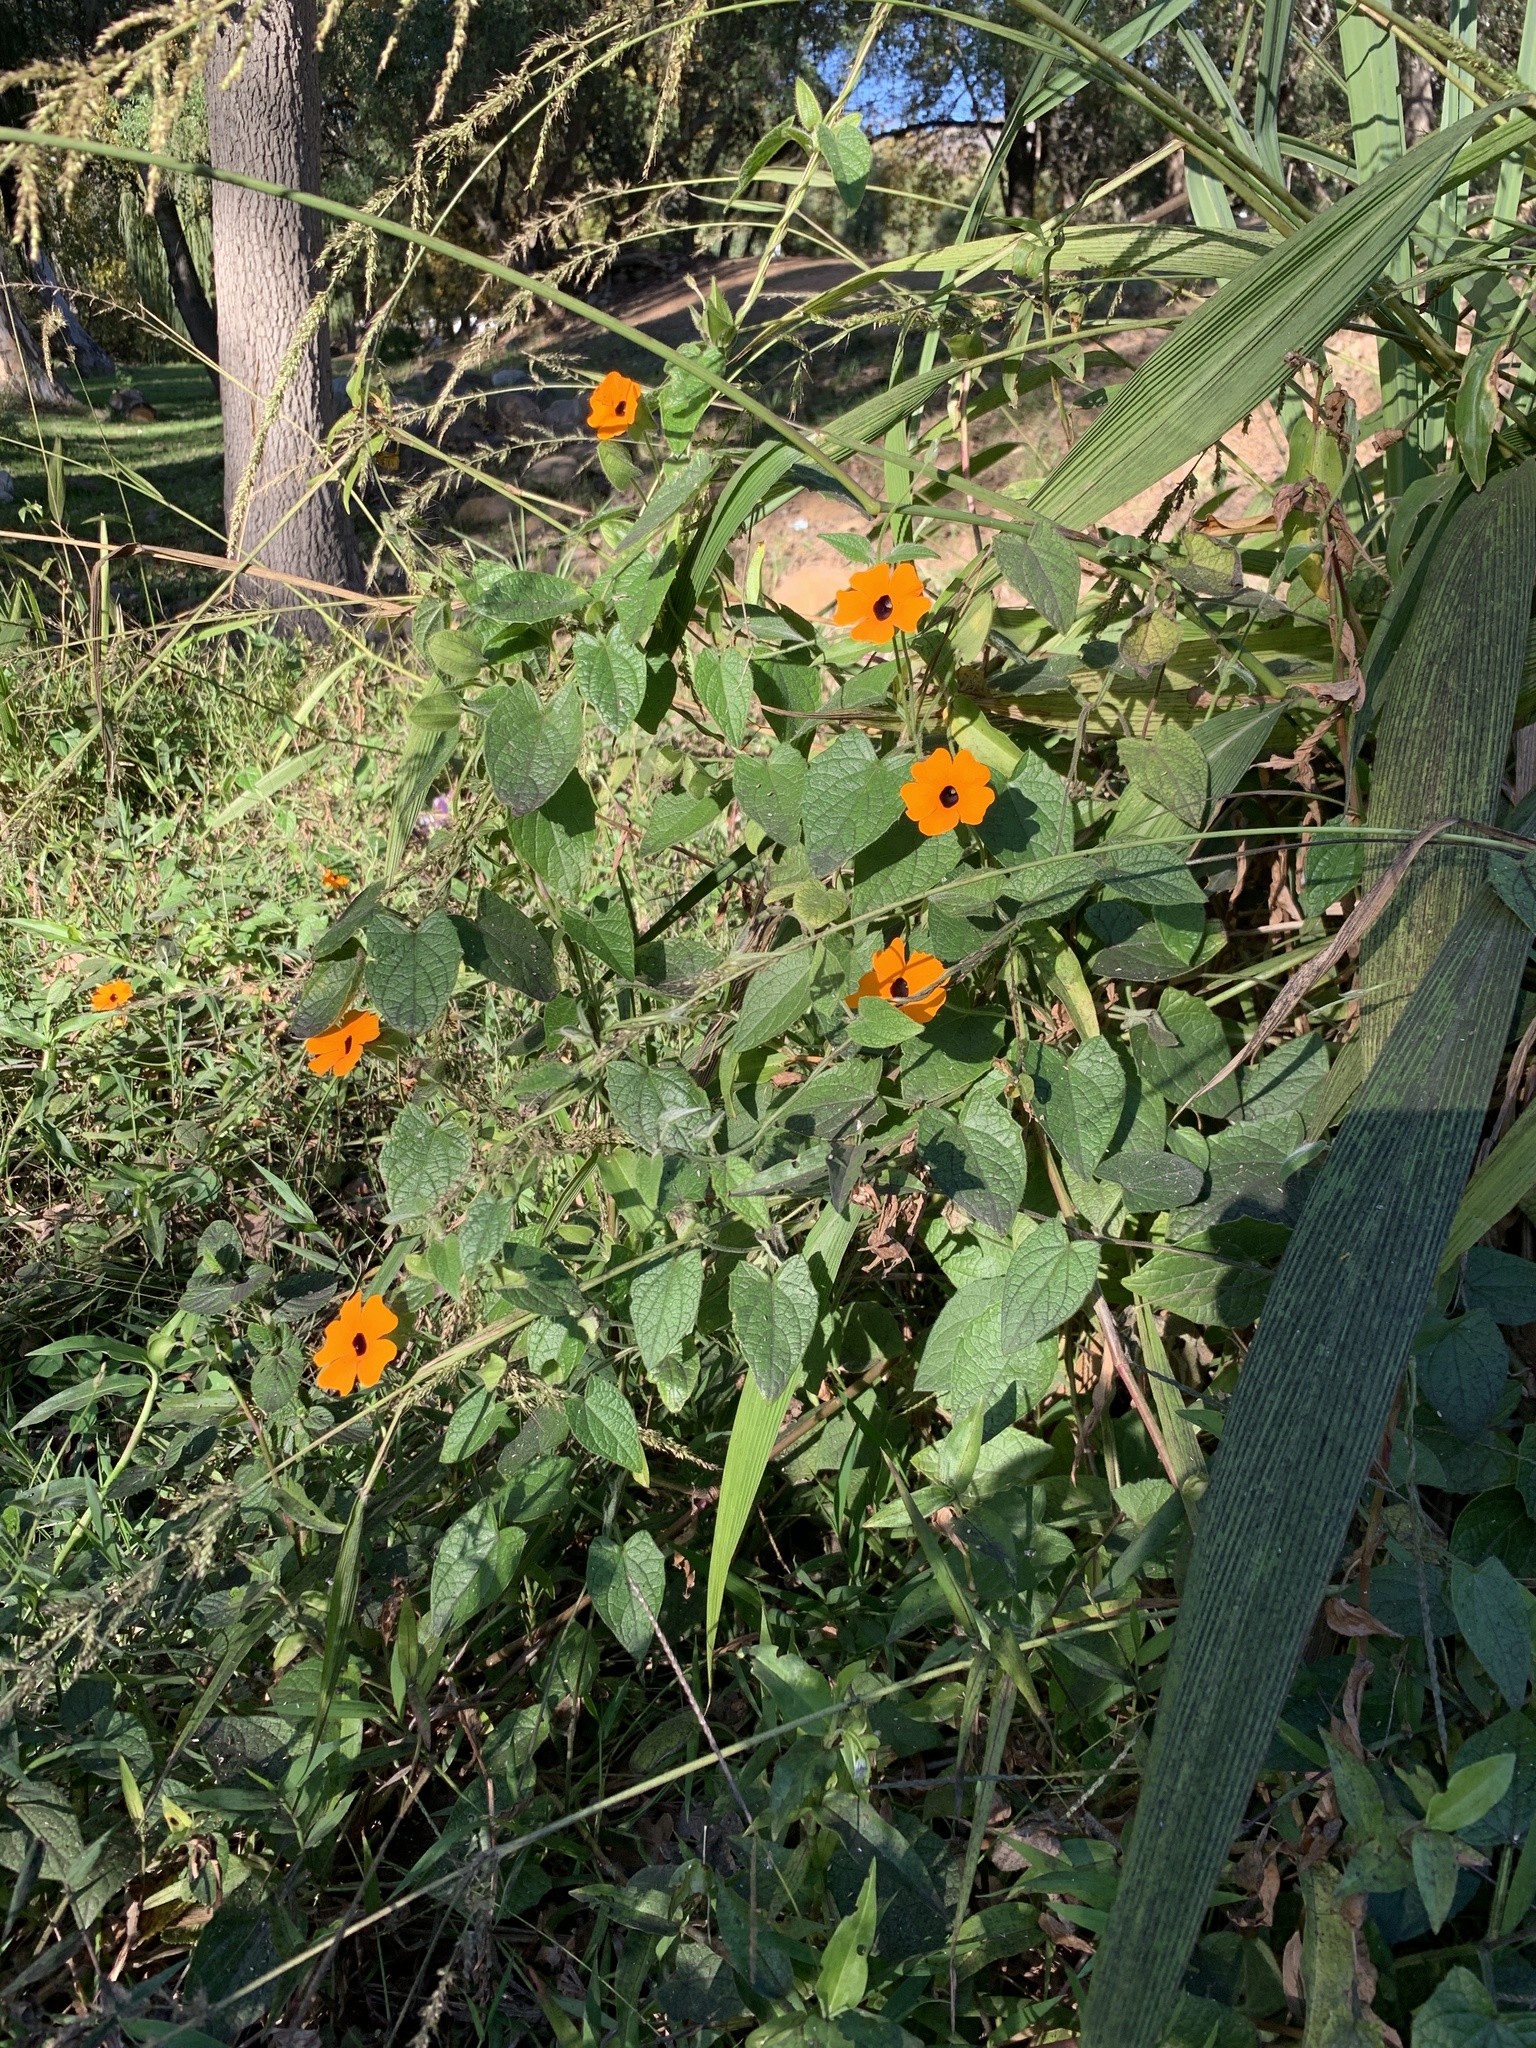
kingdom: Plantae
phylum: Tracheophyta
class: Magnoliopsida
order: Lamiales
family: Acanthaceae
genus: Thunbergia
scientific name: Thunbergia alata
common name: Blackeyed susan vine
